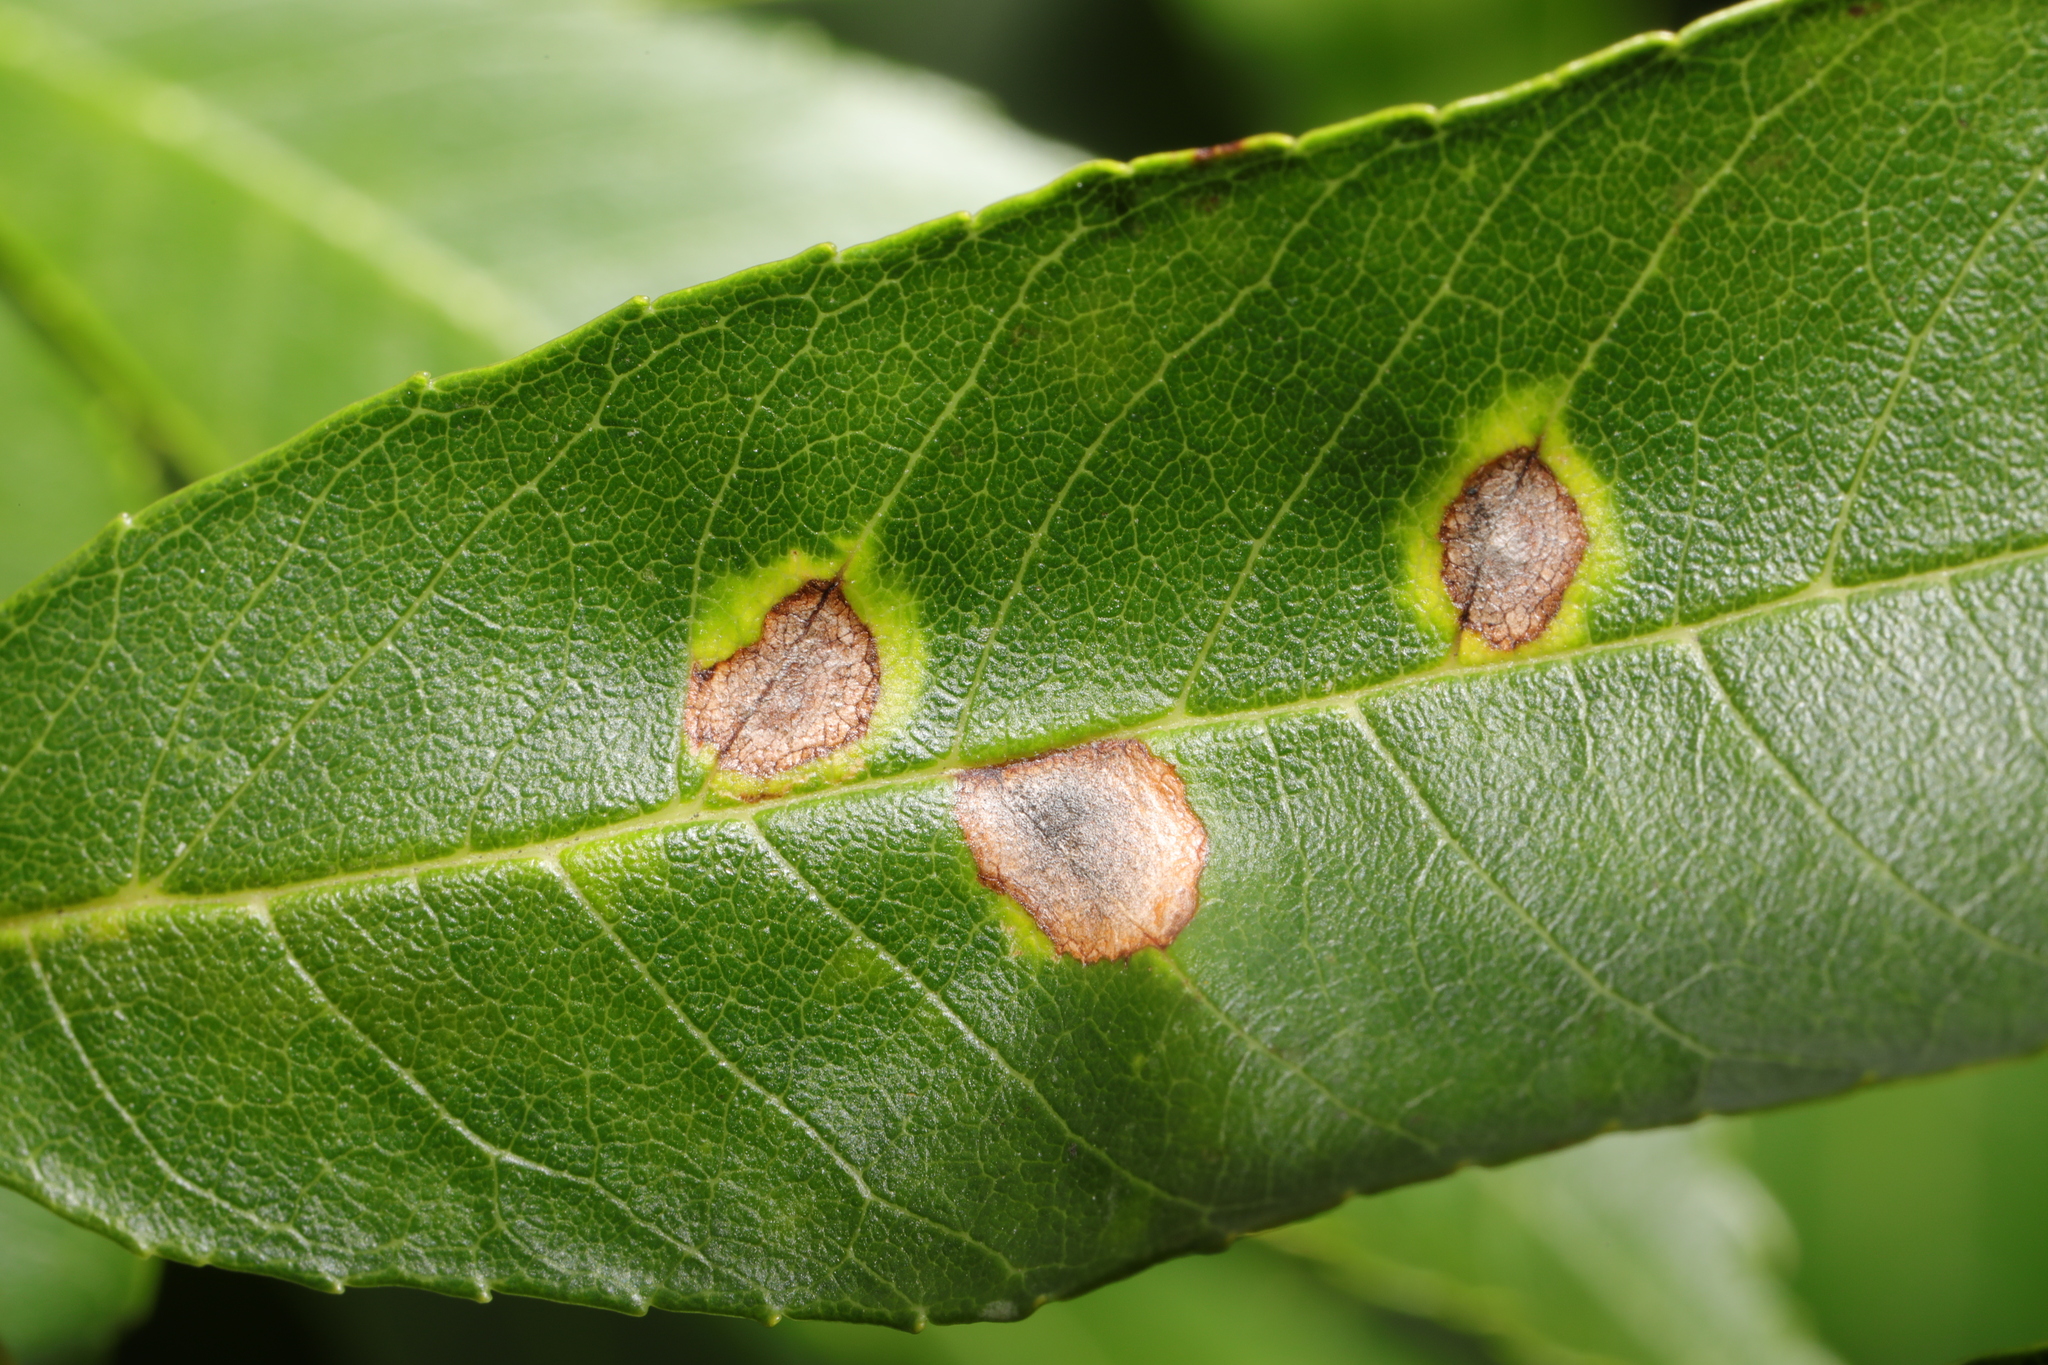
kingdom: Animalia
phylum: Arthropoda
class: Insecta
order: Diptera
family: Cecidomyiidae
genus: Dasineura
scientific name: Dasineura fraxinea
